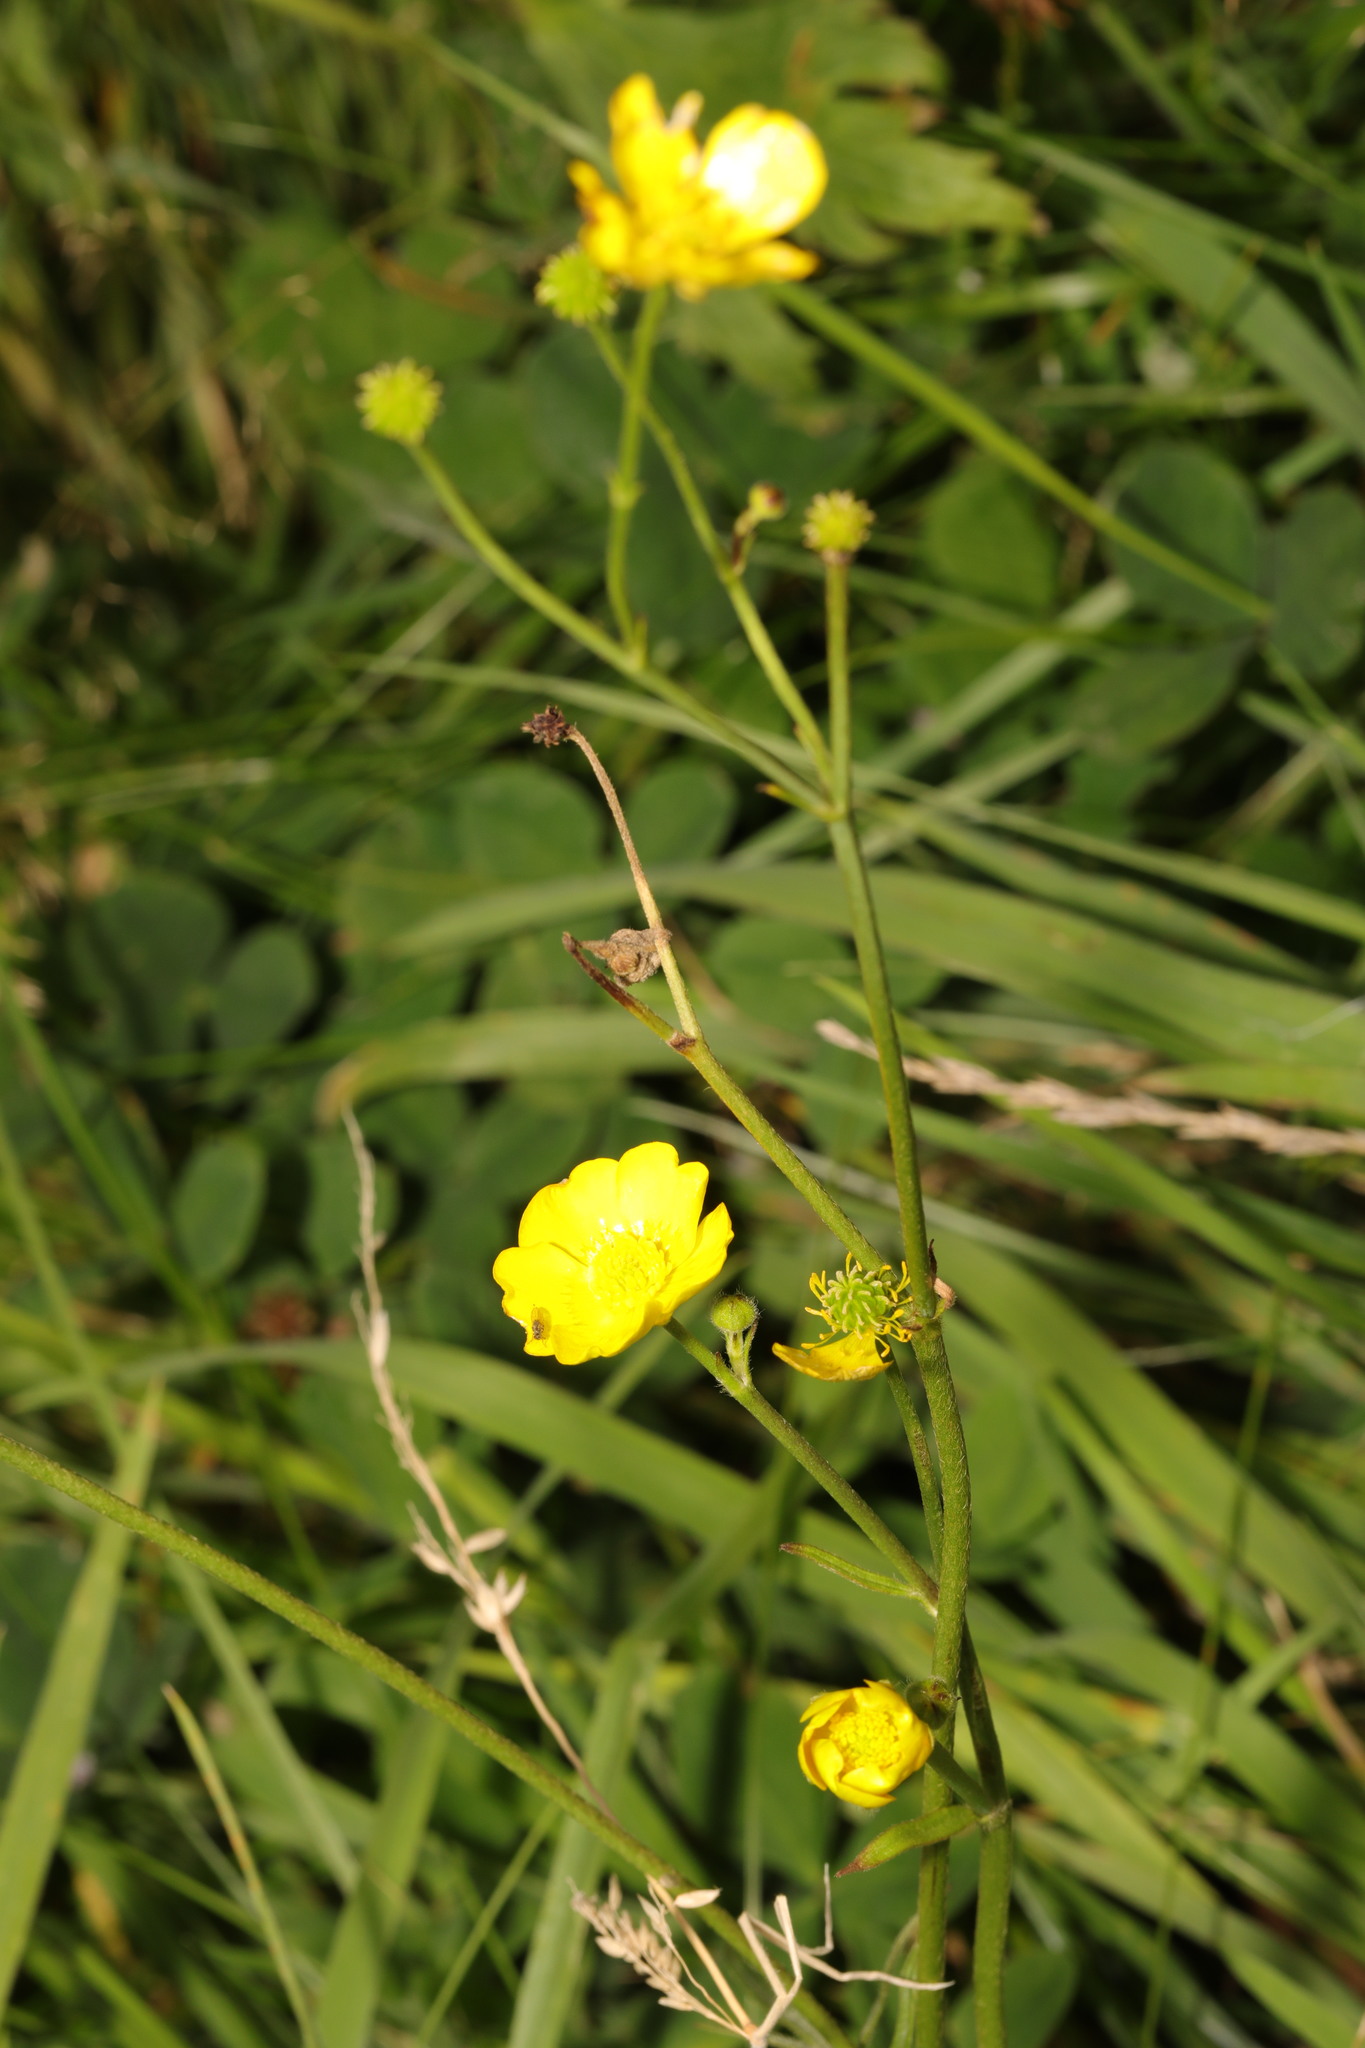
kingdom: Plantae
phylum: Tracheophyta
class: Magnoliopsida
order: Ranunculales
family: Ranunculaceae
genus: Ranunculus
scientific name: Ranunculus acris
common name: Meadow buttercup
